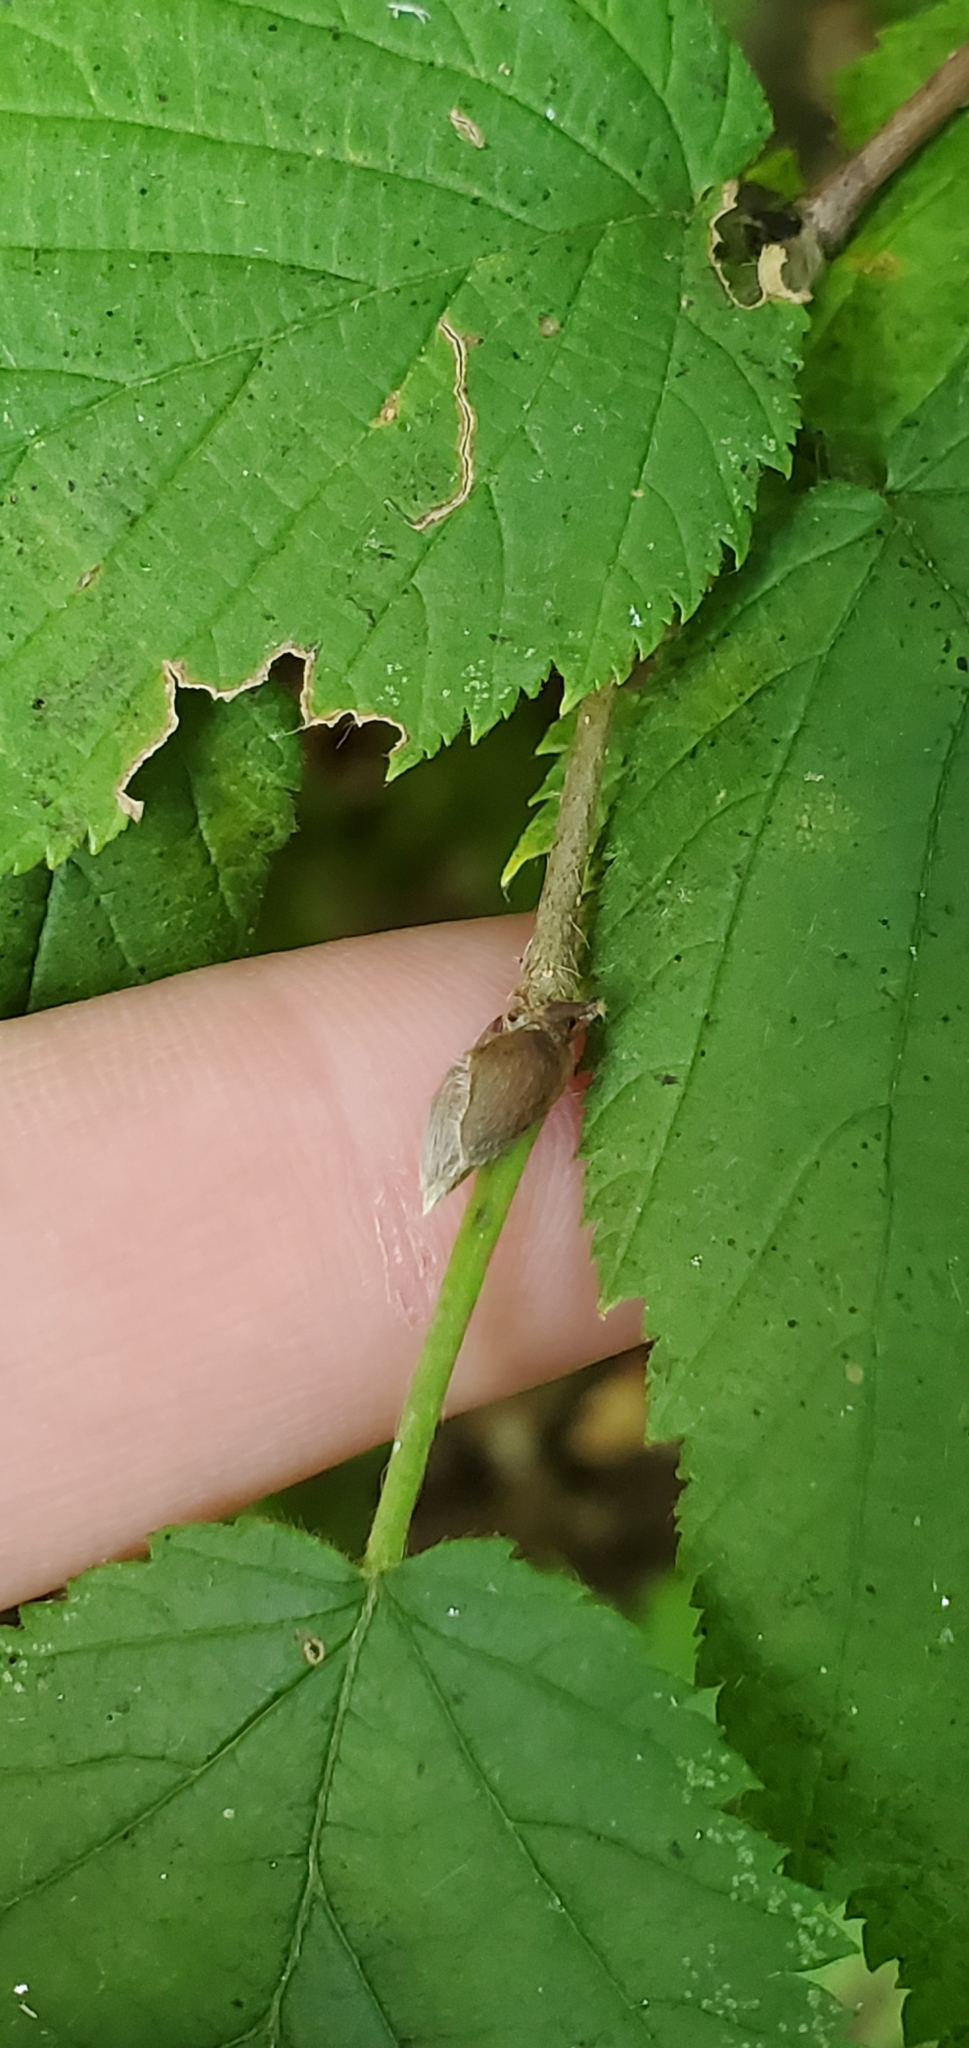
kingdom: Plantae
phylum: Tracheophyta
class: Magnoliopsida
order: Fagales
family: Betulaceae
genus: Corylus
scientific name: Corylus cornuta
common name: Beaked hazel
